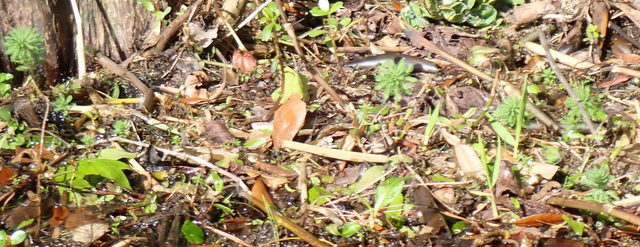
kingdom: Plantae
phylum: Tracheophyta
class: Magnoliopsida
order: Saxifragales
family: Haloragaceae
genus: Myriophyllum
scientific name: Myriophyllum aquaticum
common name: Parrot's feather
